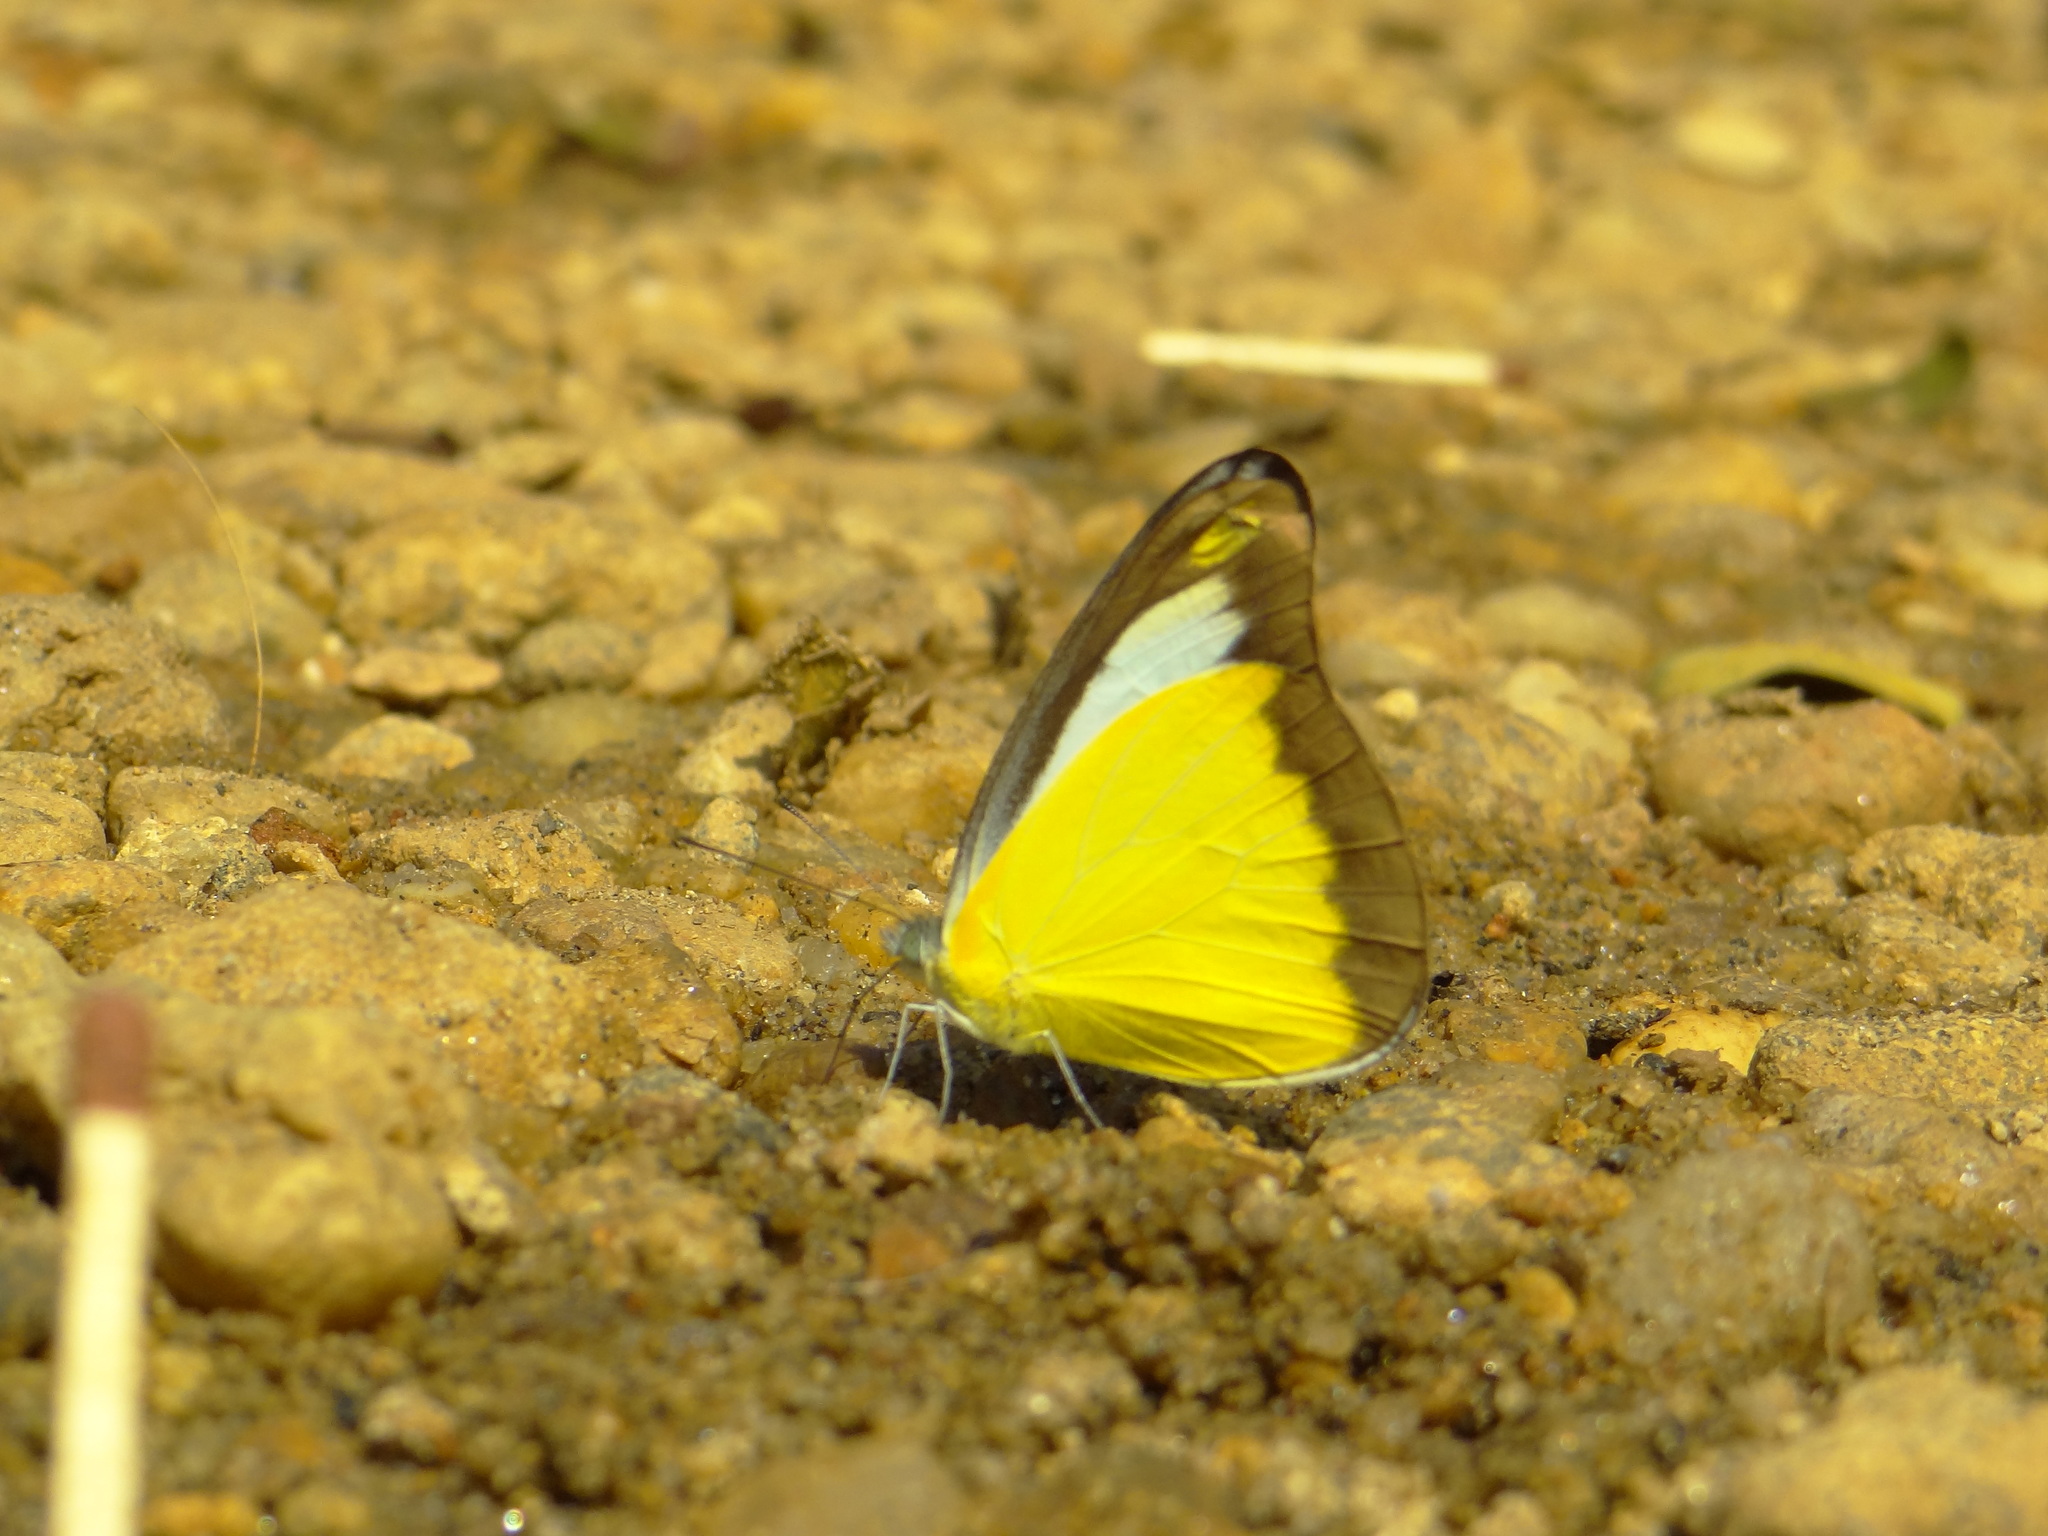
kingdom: Animalia
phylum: Arthropoda
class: Insecta
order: Lepidoptera
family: Pieridae
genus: Appias
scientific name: Appias lyncida
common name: Chocolate albatross
